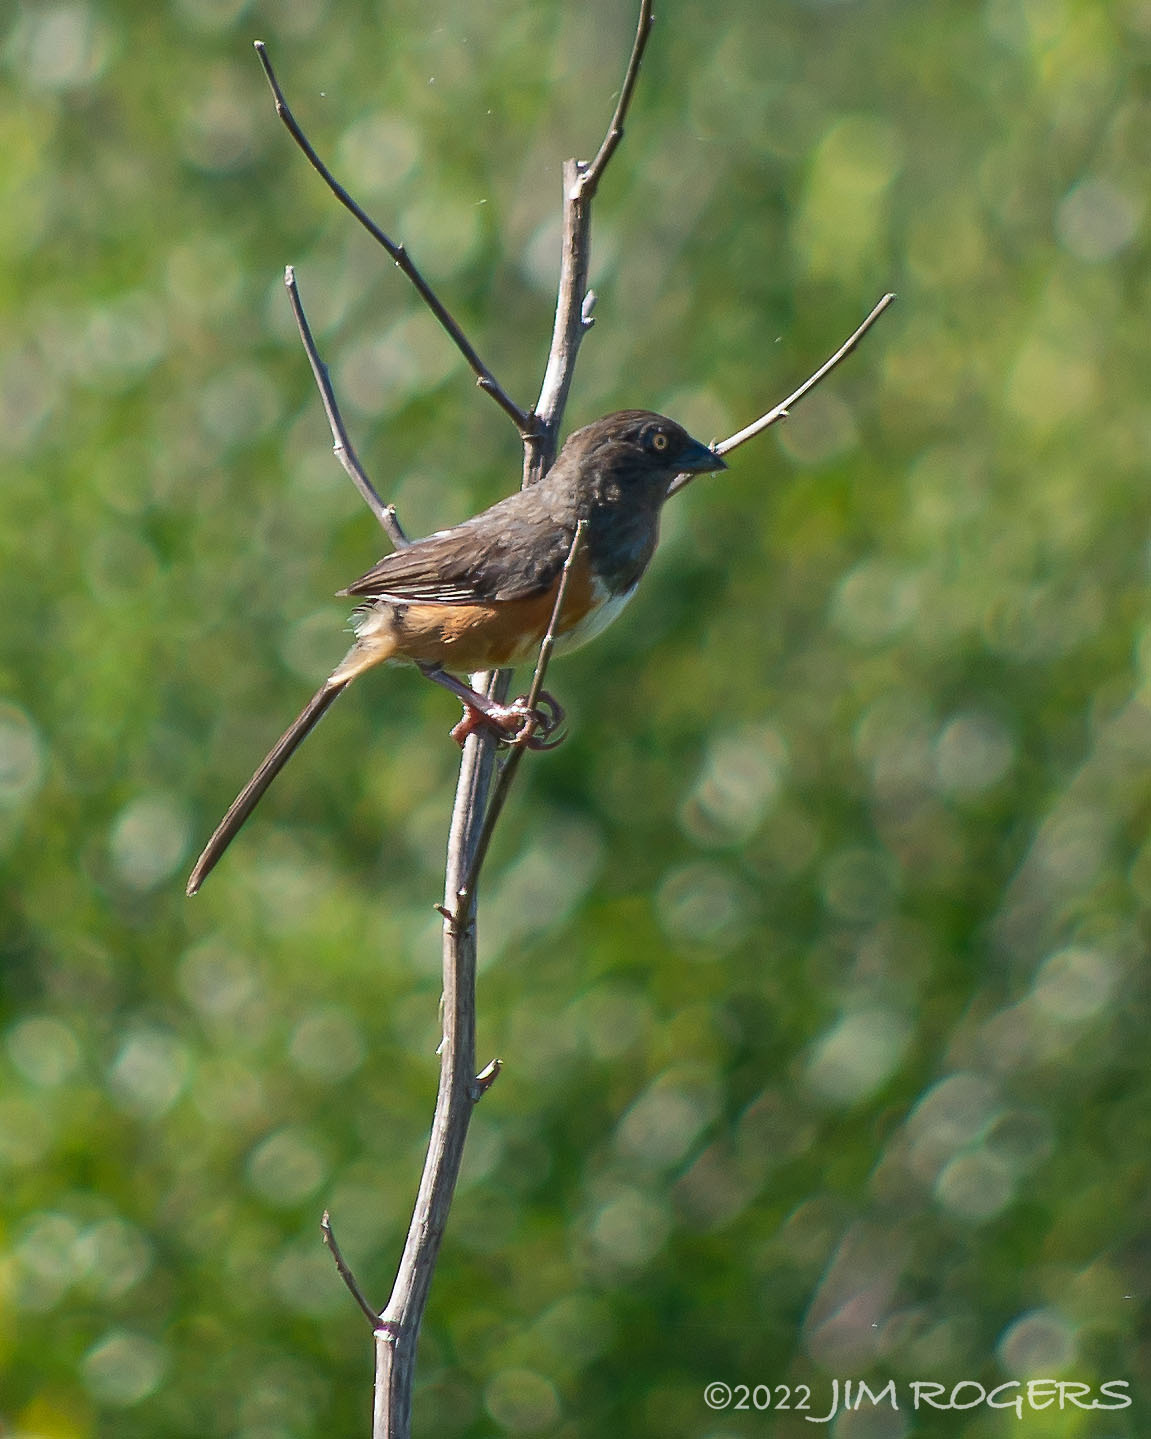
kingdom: Animalia
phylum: Chordata
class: Aves
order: Passeriformes
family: Passerellidae
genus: Pipilo
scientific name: Pipilo erythrophthalmus
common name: Eastern towhee
